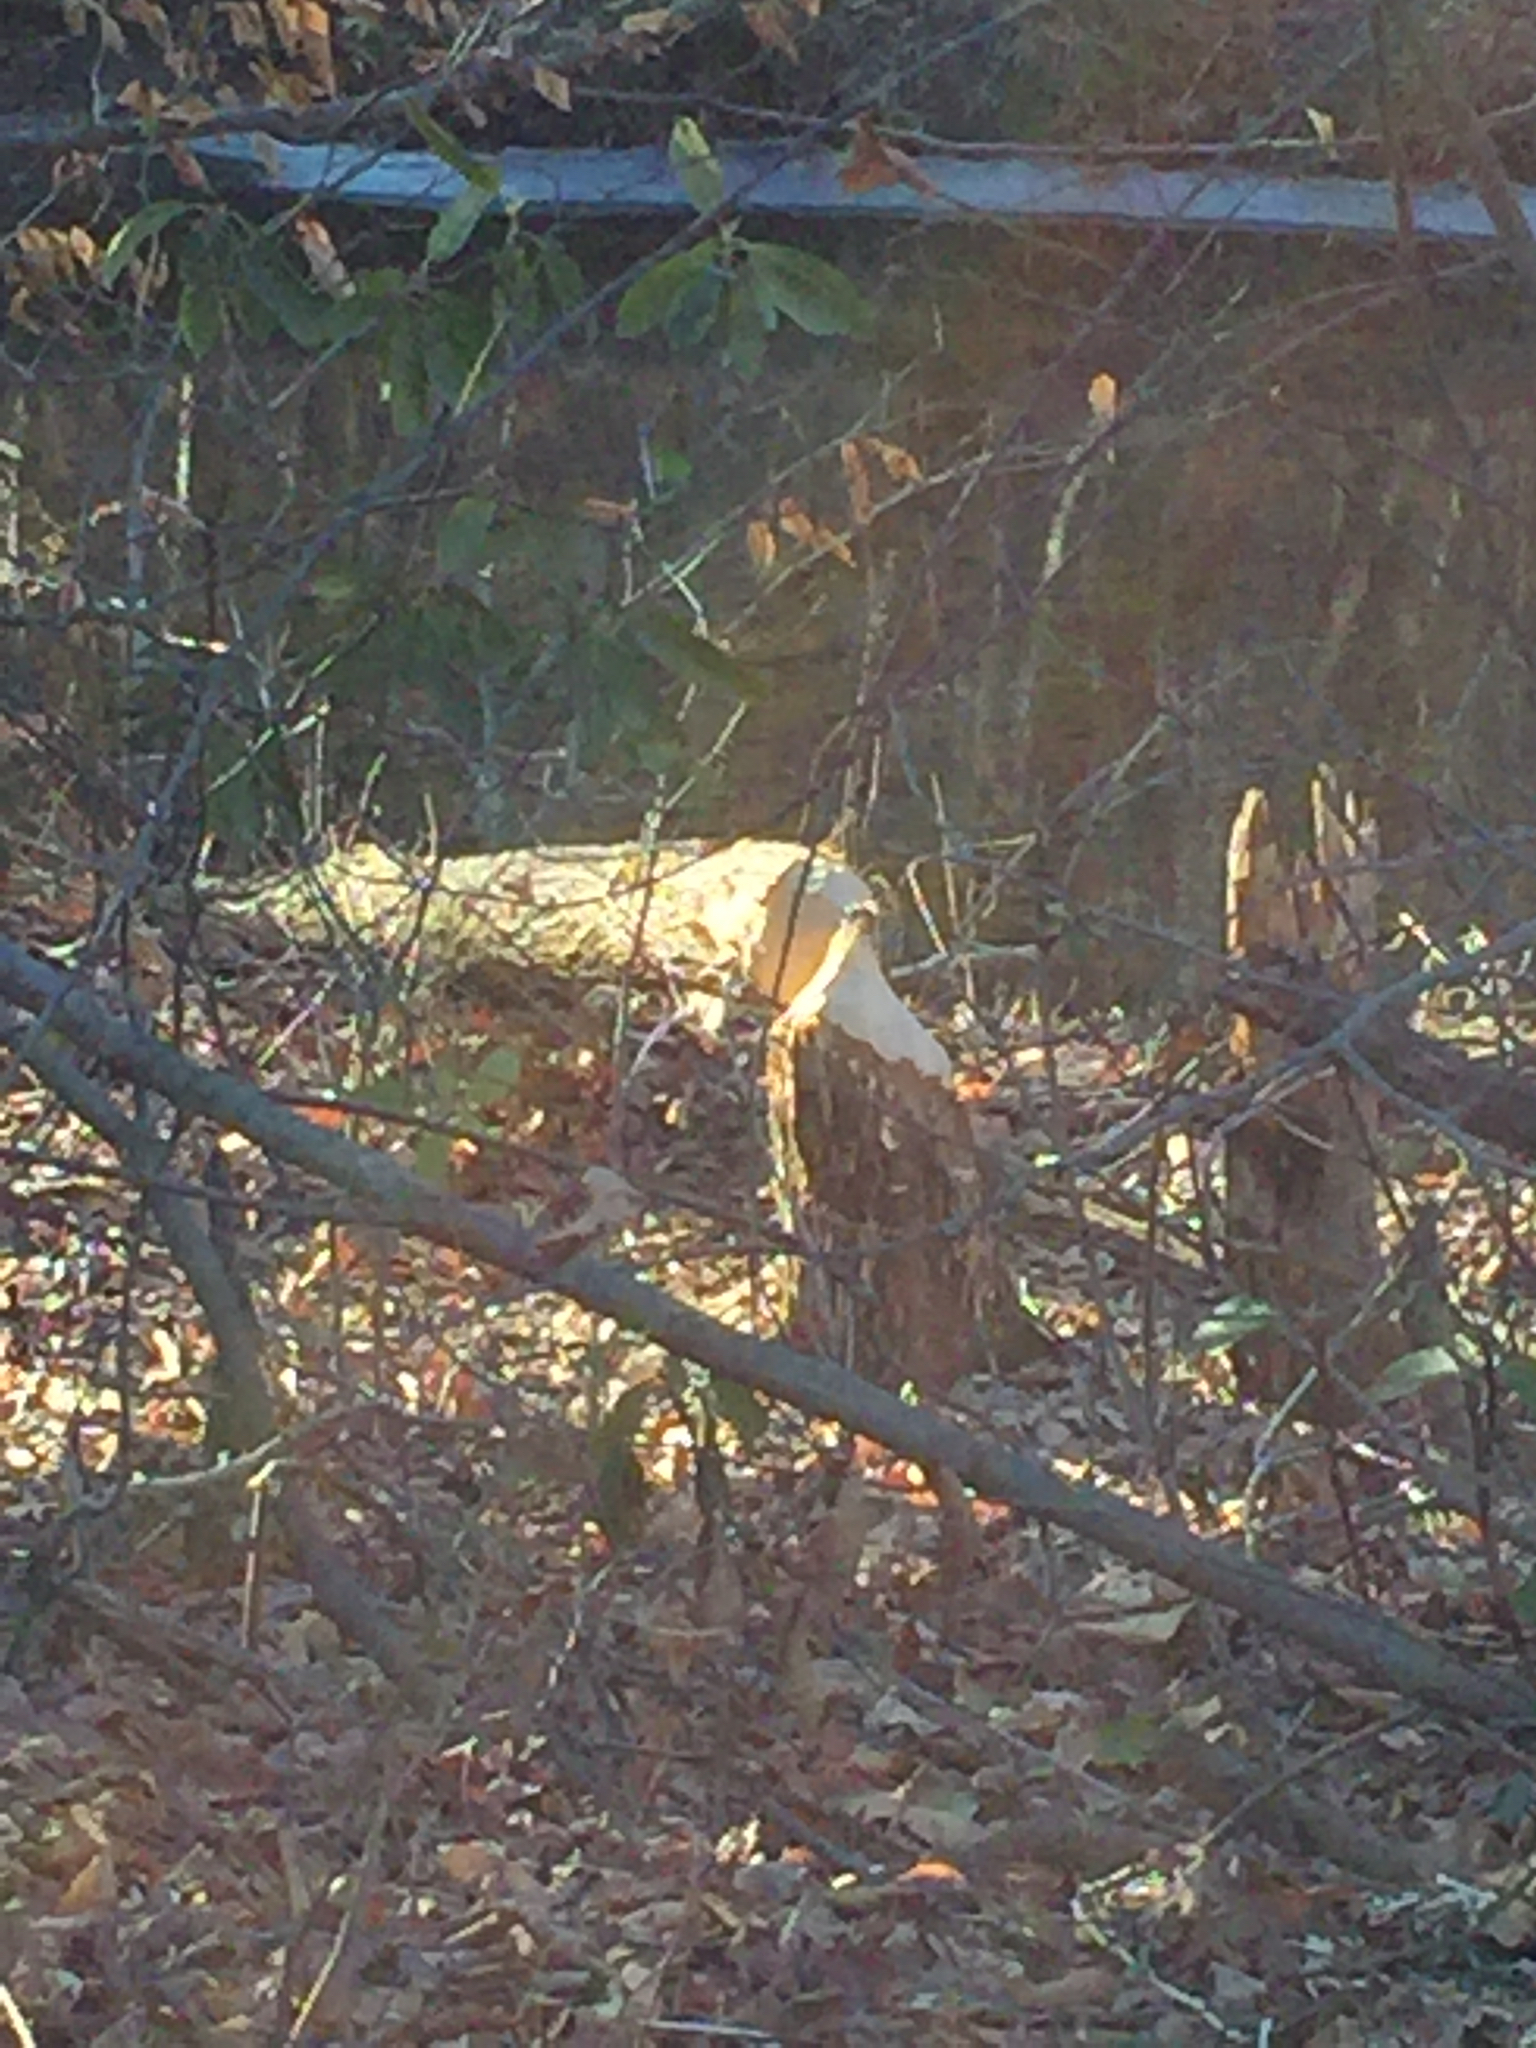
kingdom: Animalia
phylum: Chordata
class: Mammalia
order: Rodentia
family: Castoridae
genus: Castor
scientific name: Castor canadensis
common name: American beaver
